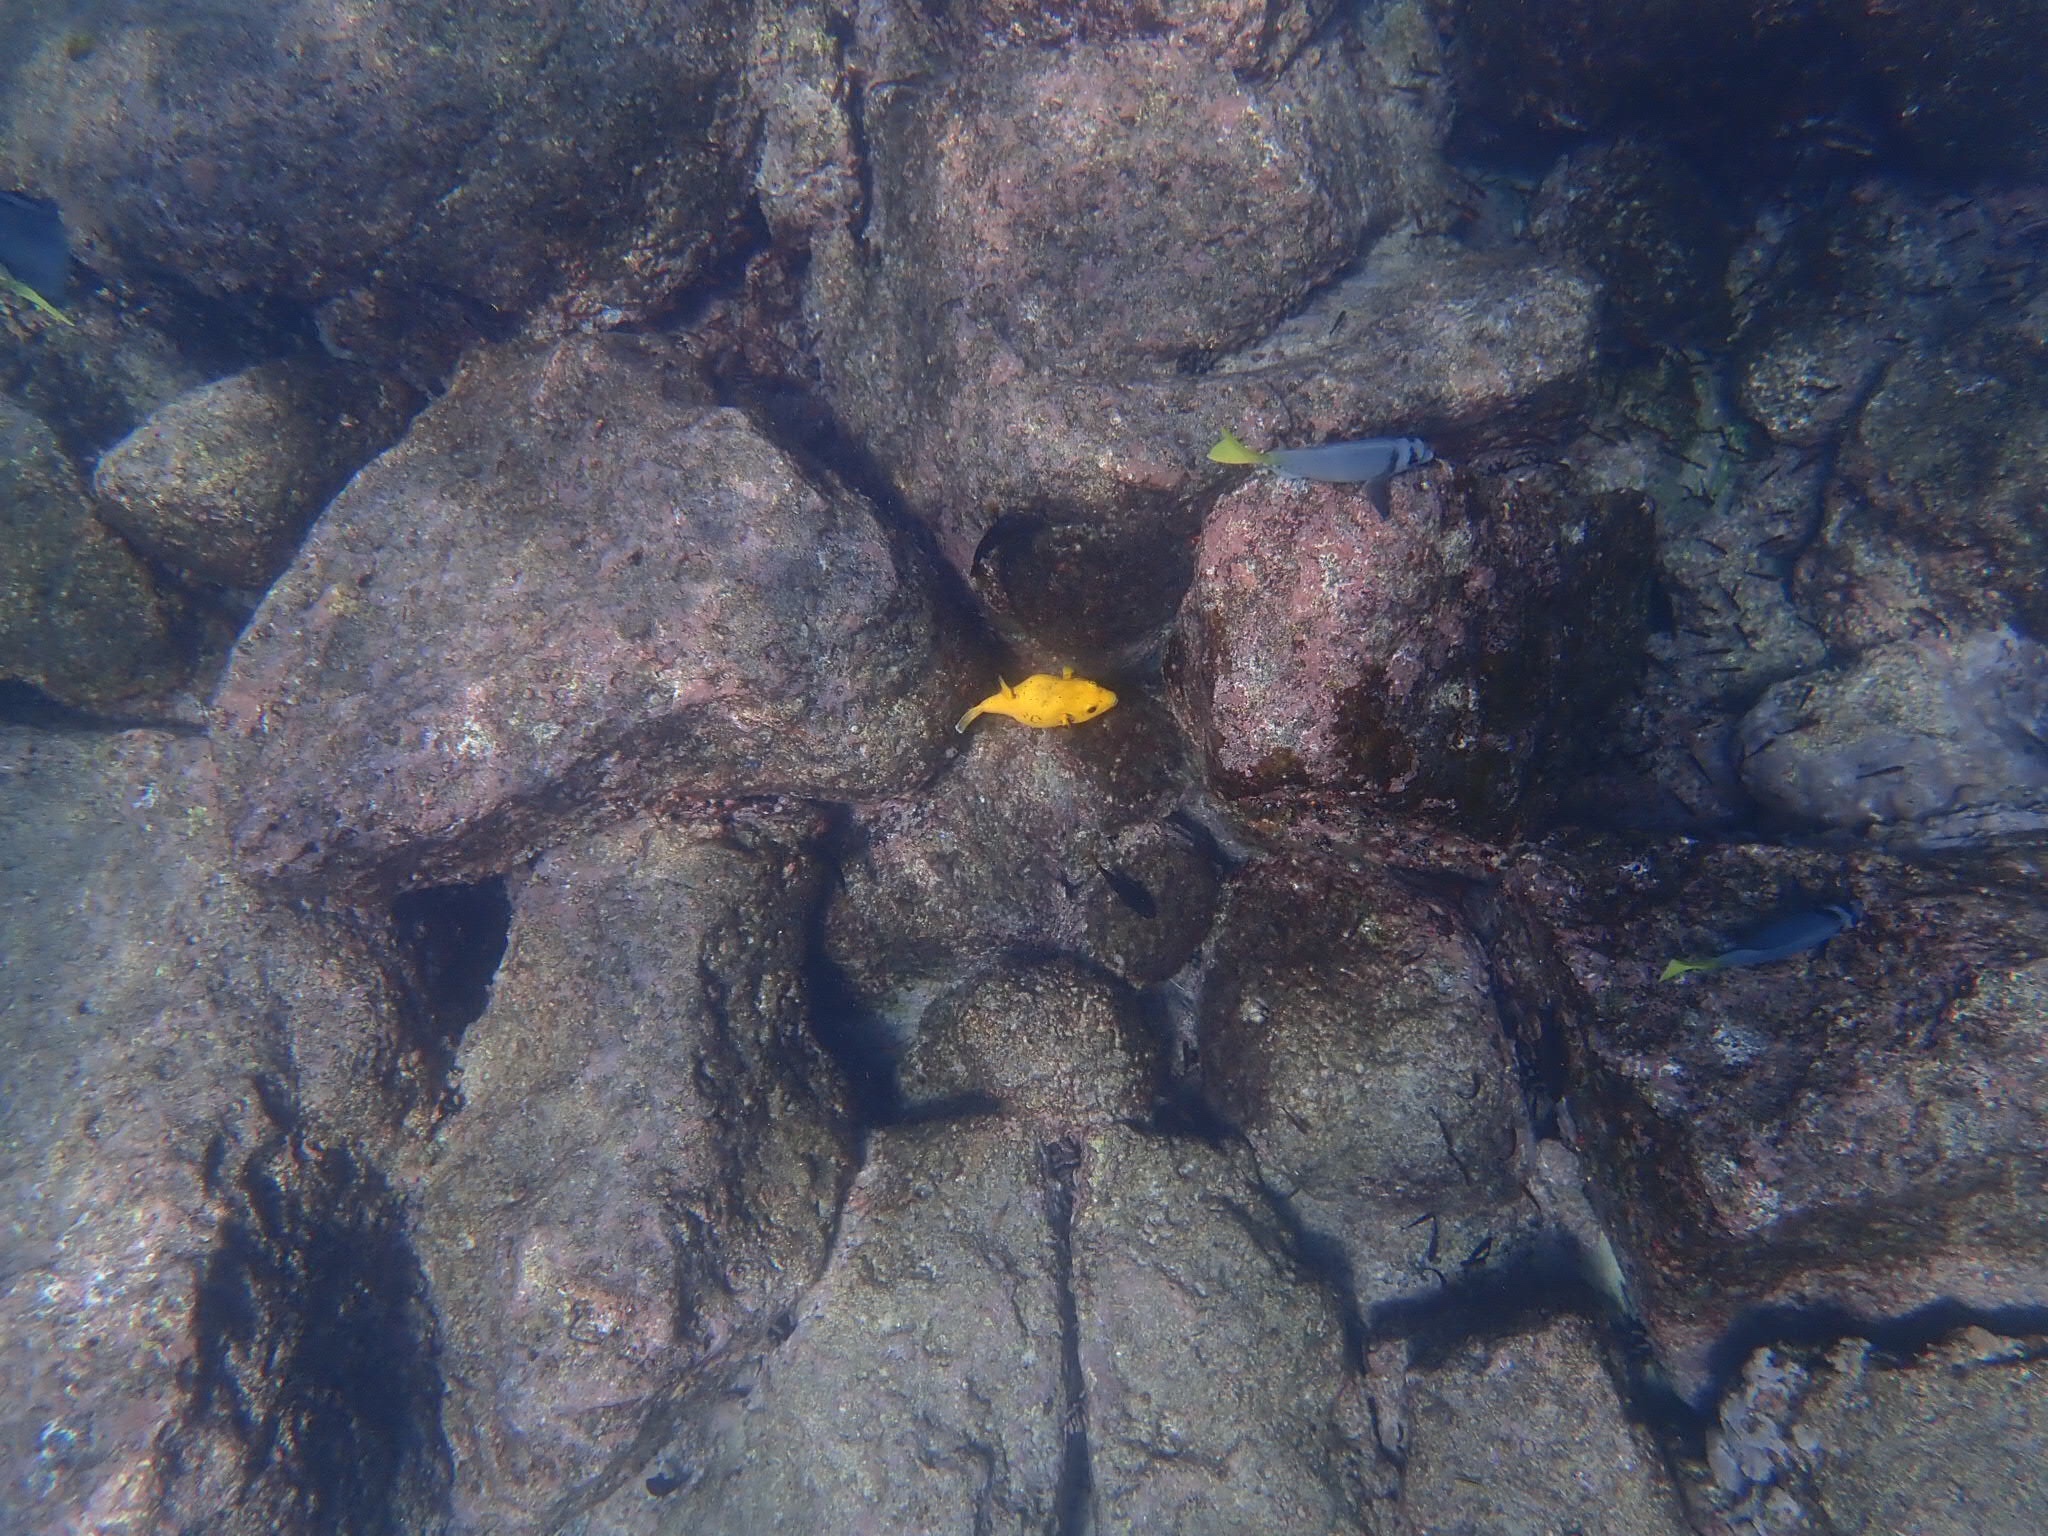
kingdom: Animalia
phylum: Chordata
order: Tetraodontiformes
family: Tetraodontidae
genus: Arothron
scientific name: Arothron meleagris
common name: Guinea-fowl pufferfish
